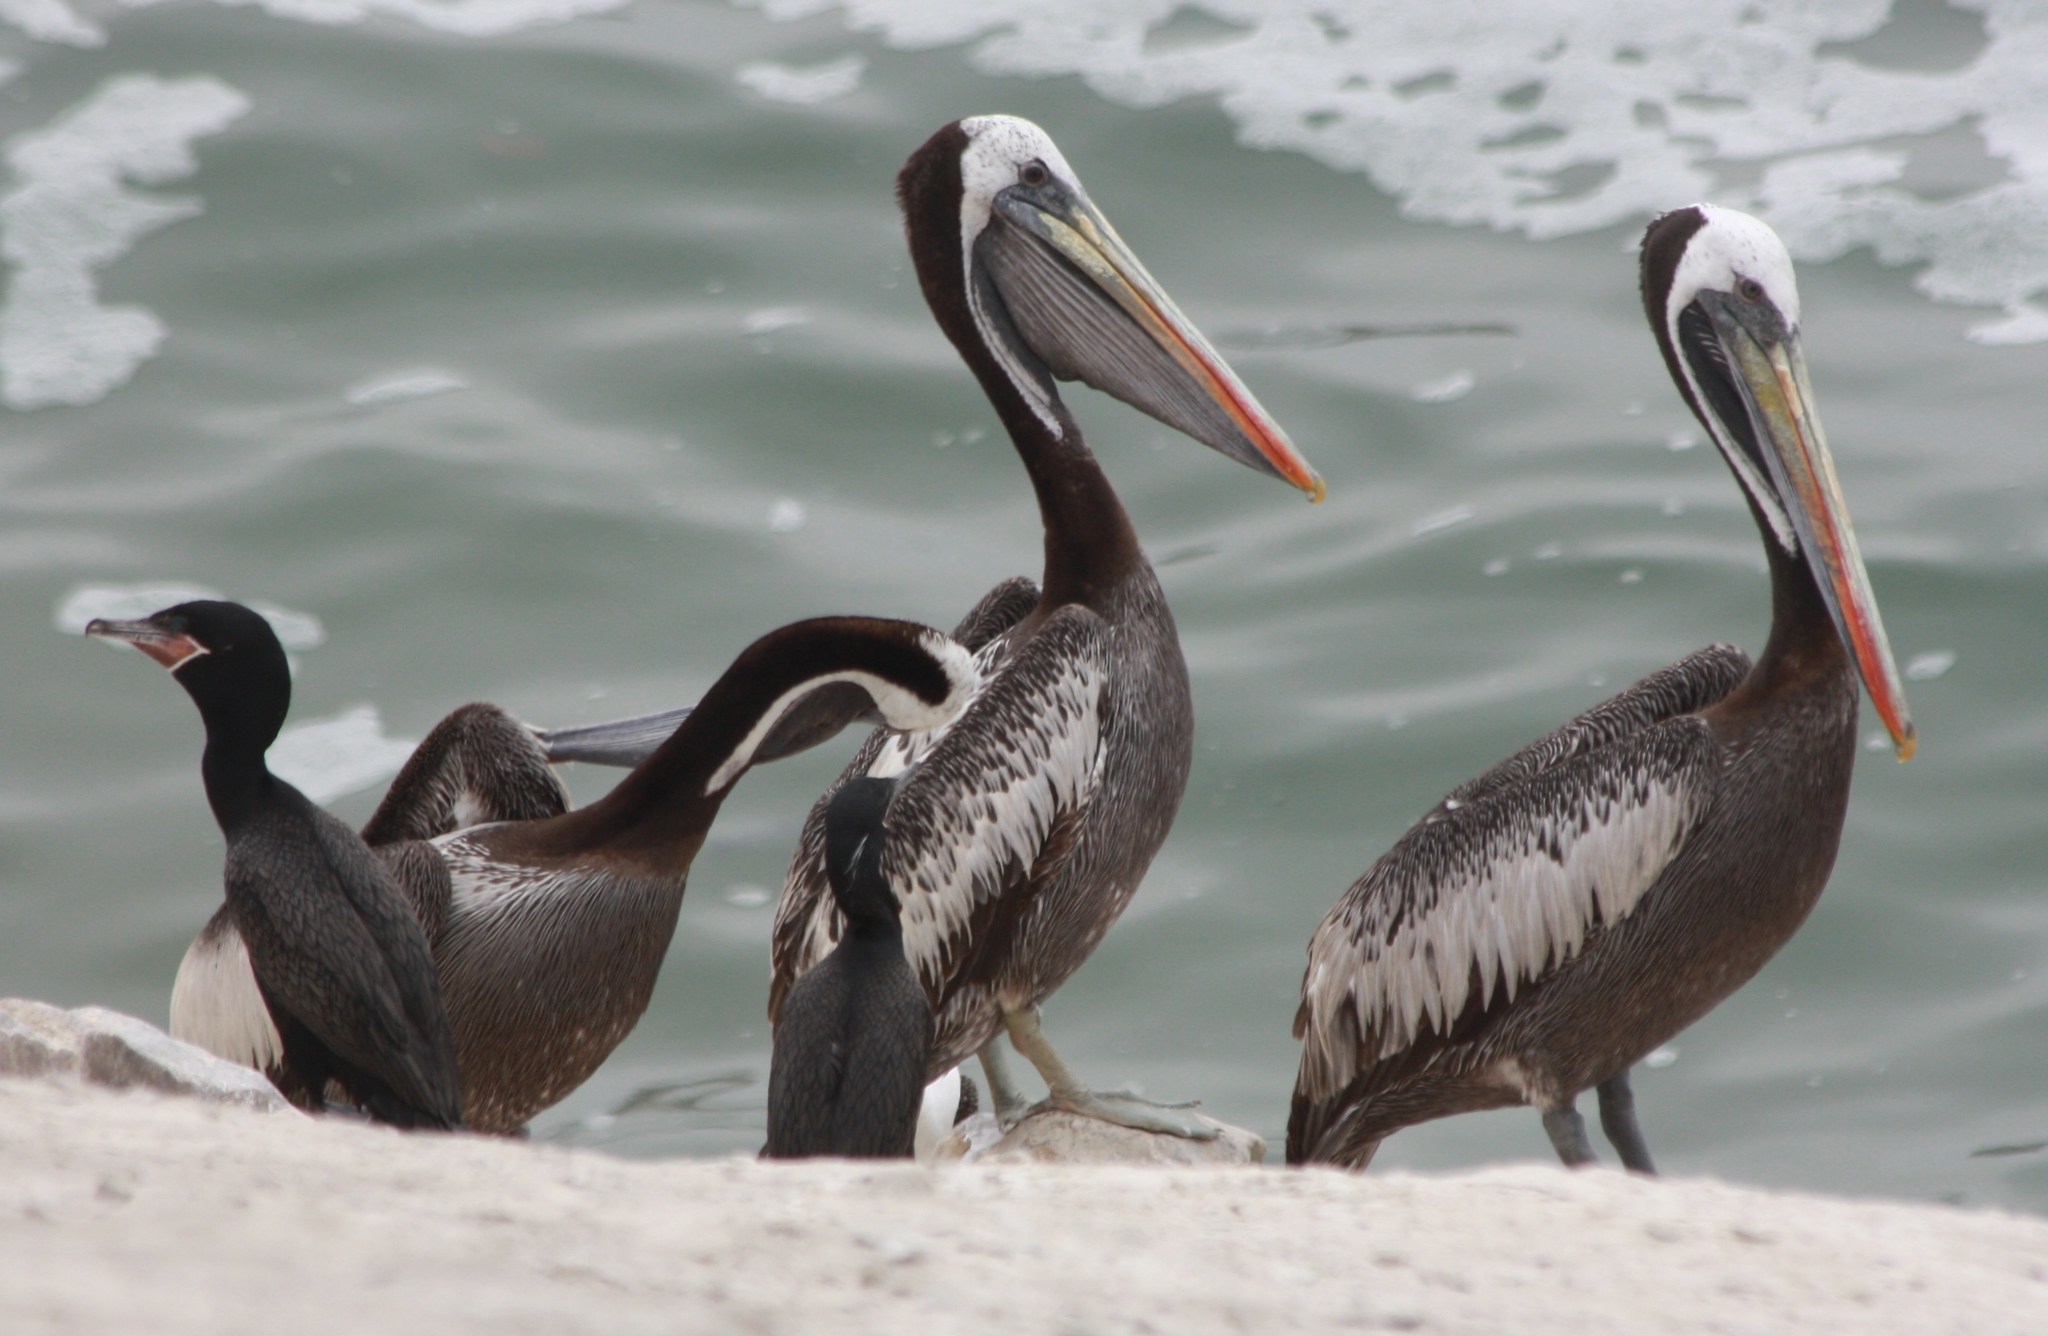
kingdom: Animalia
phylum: Chordata
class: Aves
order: Pelecaniformes
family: Pelecanidae
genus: Pelecanus
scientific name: Pelecanus thagus
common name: Peruvian pelican
